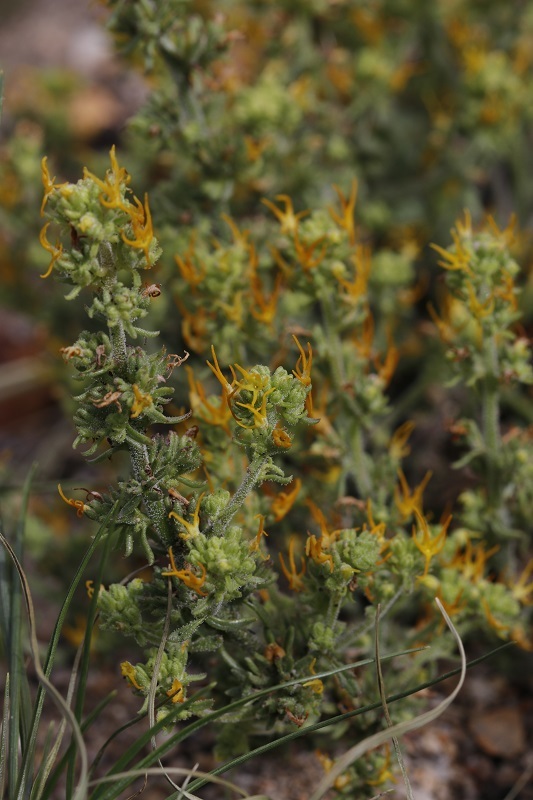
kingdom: Plantae
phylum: Tracheophyta
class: Magnoliopsida
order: Lamiales
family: Scrophulariaceae
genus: Manulea
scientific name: Manulea cheiranthus
